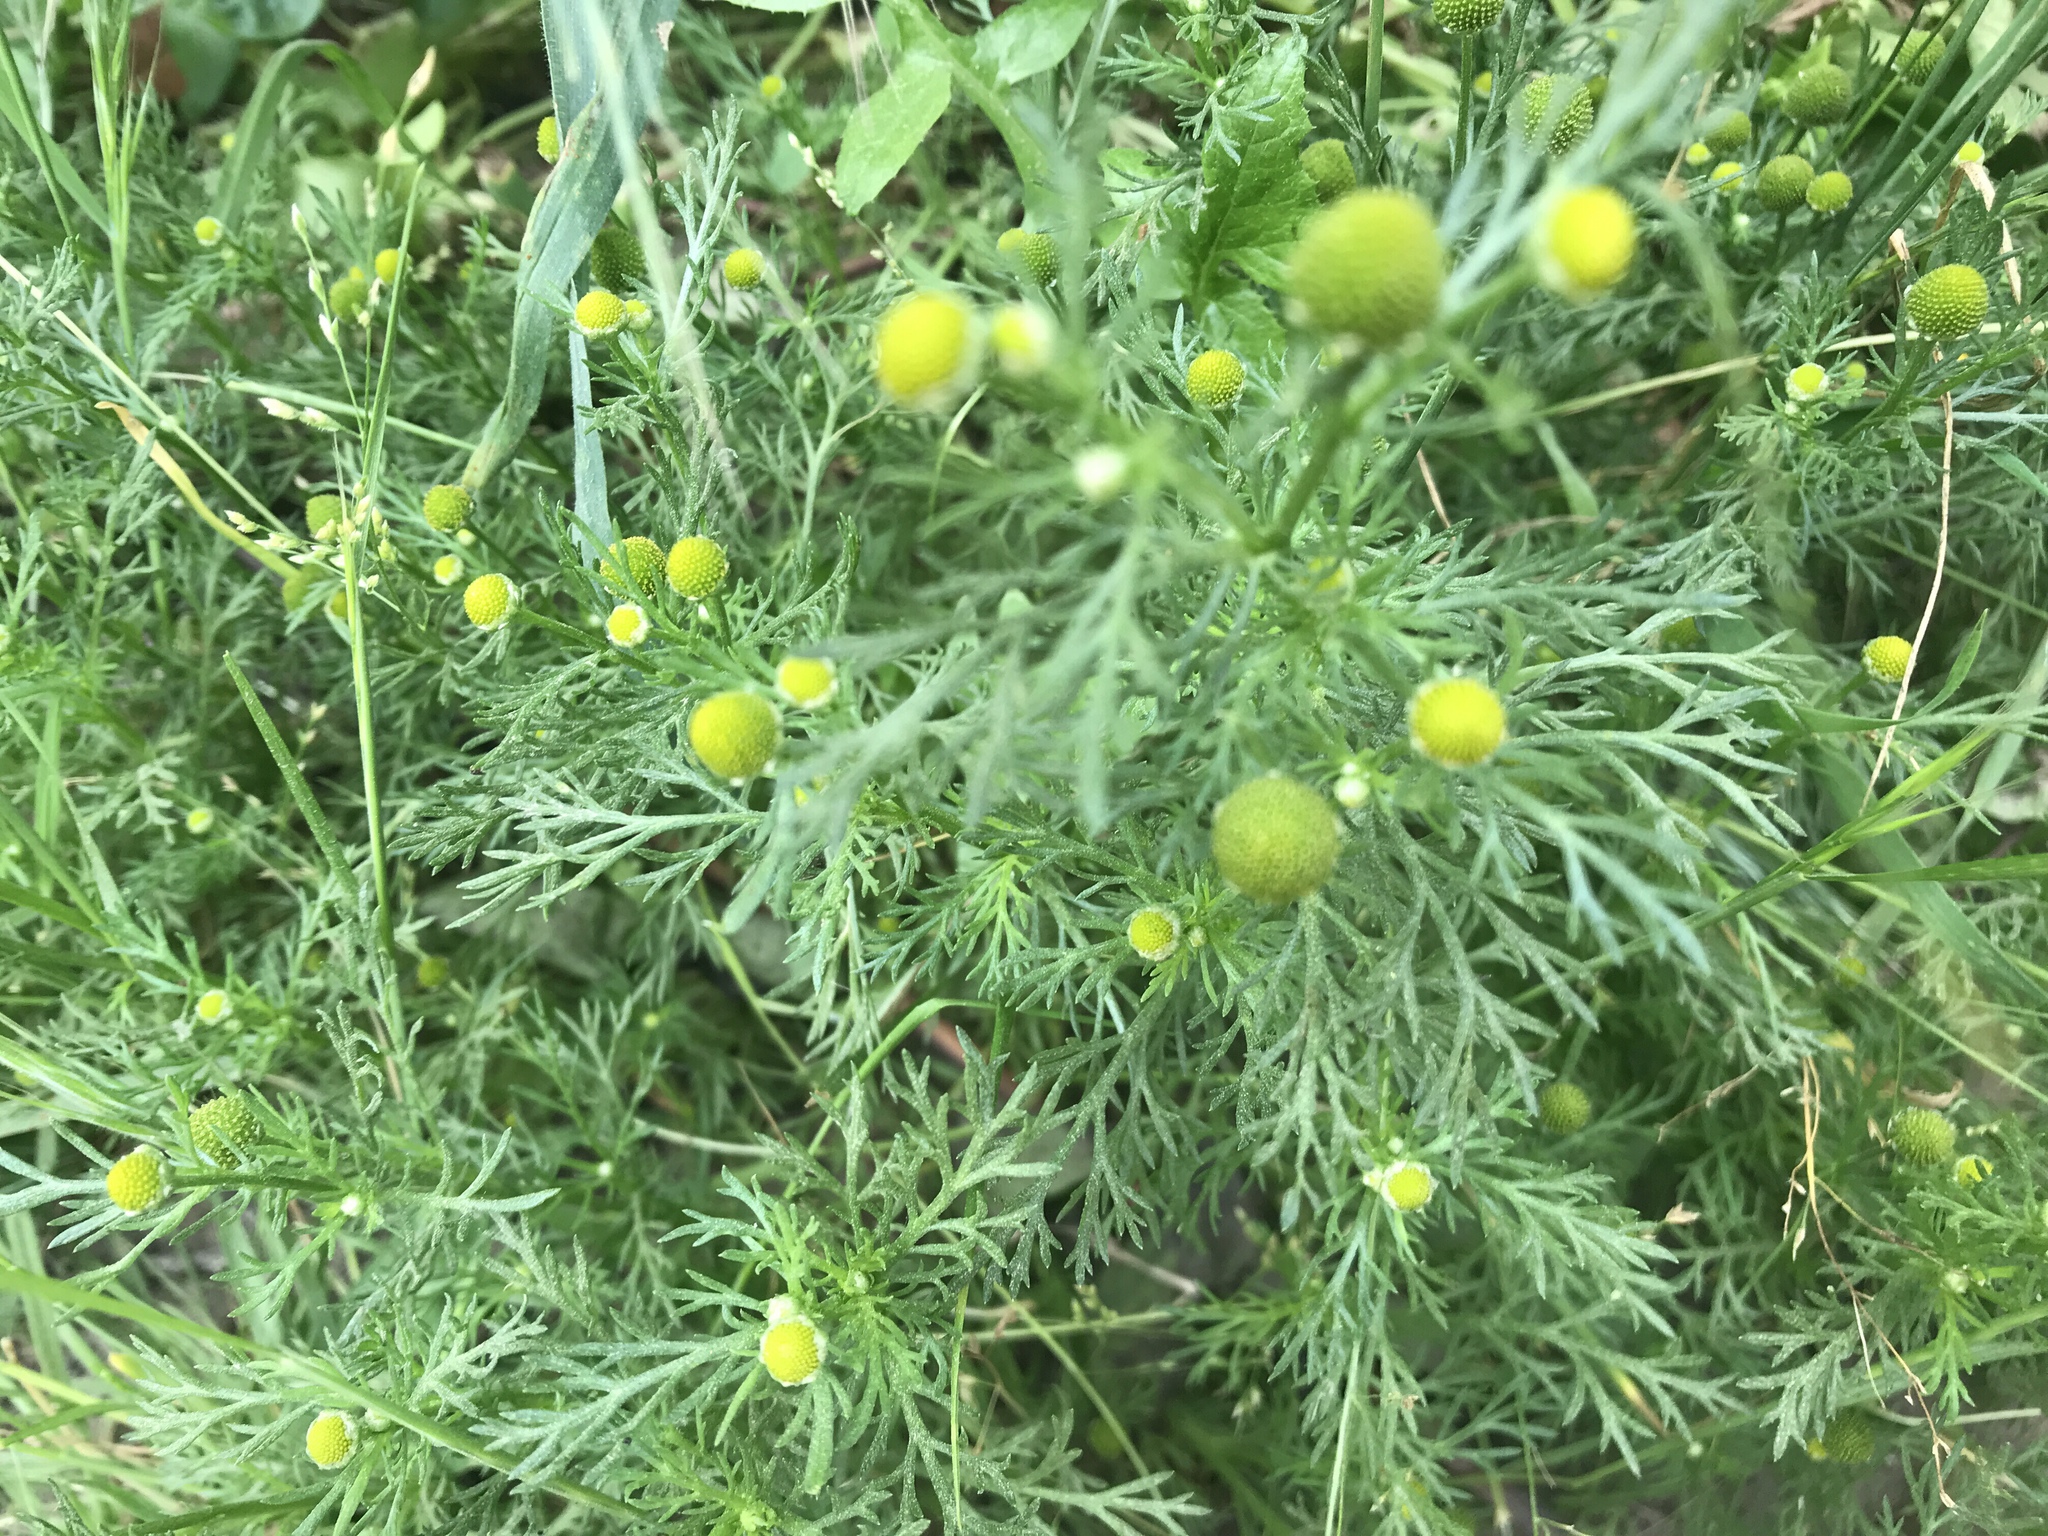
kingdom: Plantae
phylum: Tracheophyta
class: Magnoliopsida
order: Asterales
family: Asteraceae
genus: Matricaria
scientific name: Matricaria discoidea
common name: Disc mayweed
